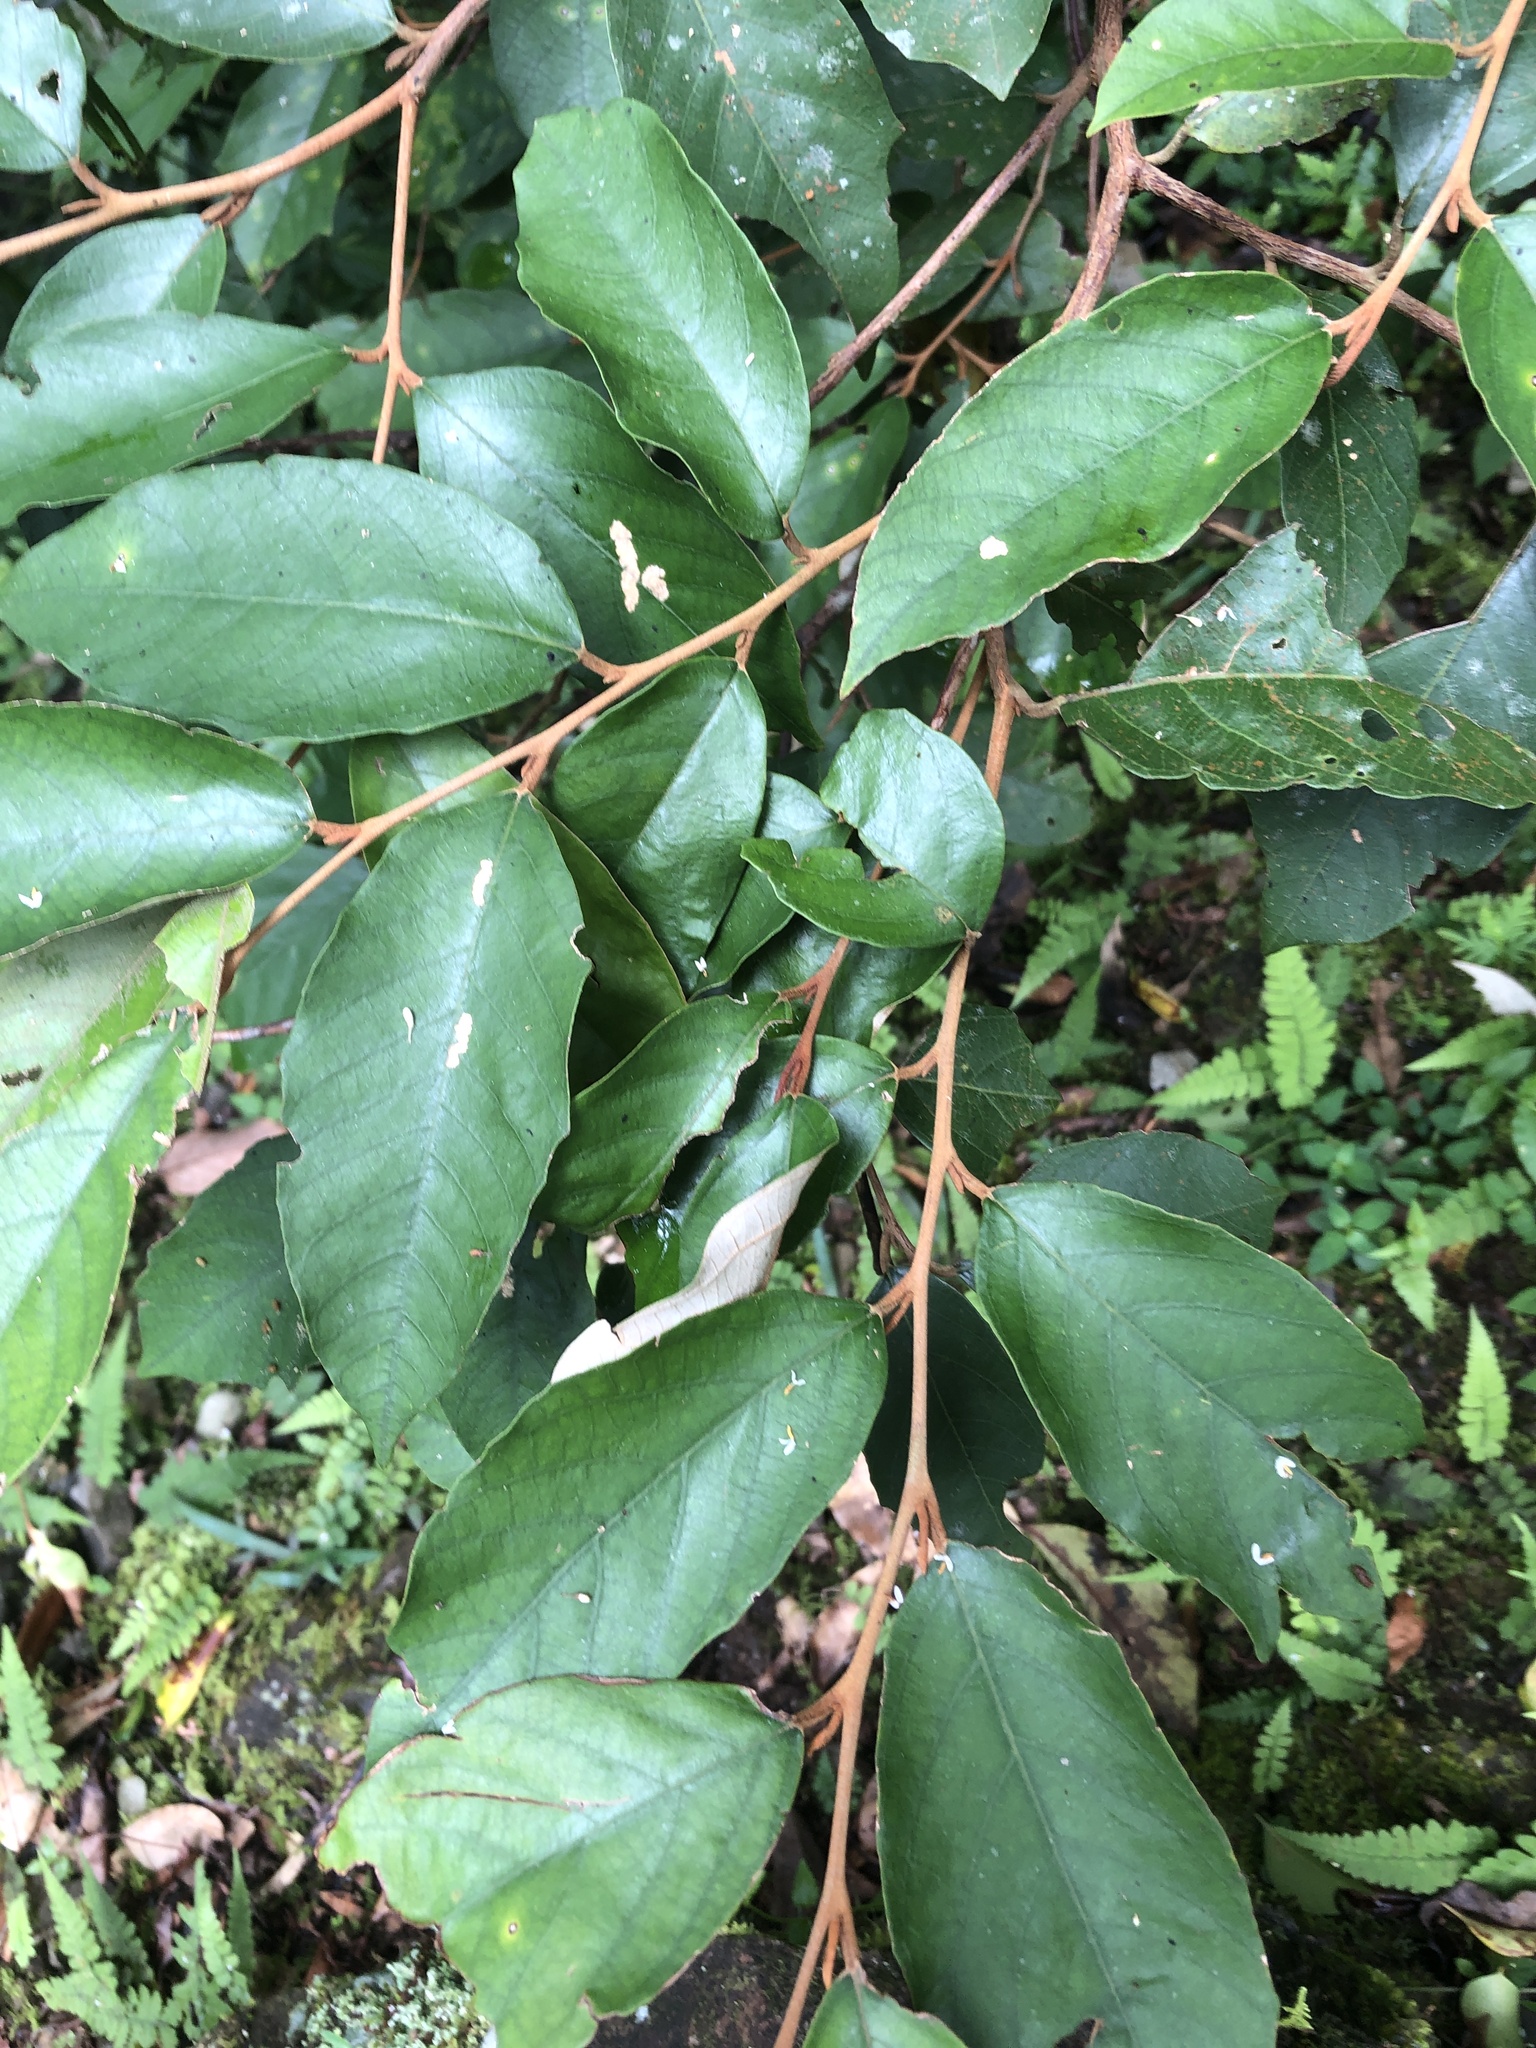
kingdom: Plantae
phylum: Tracheophyta
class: Magnoliopsida
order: Ericales
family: Styracaceae
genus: Styrax
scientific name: Styrax suberifolius
